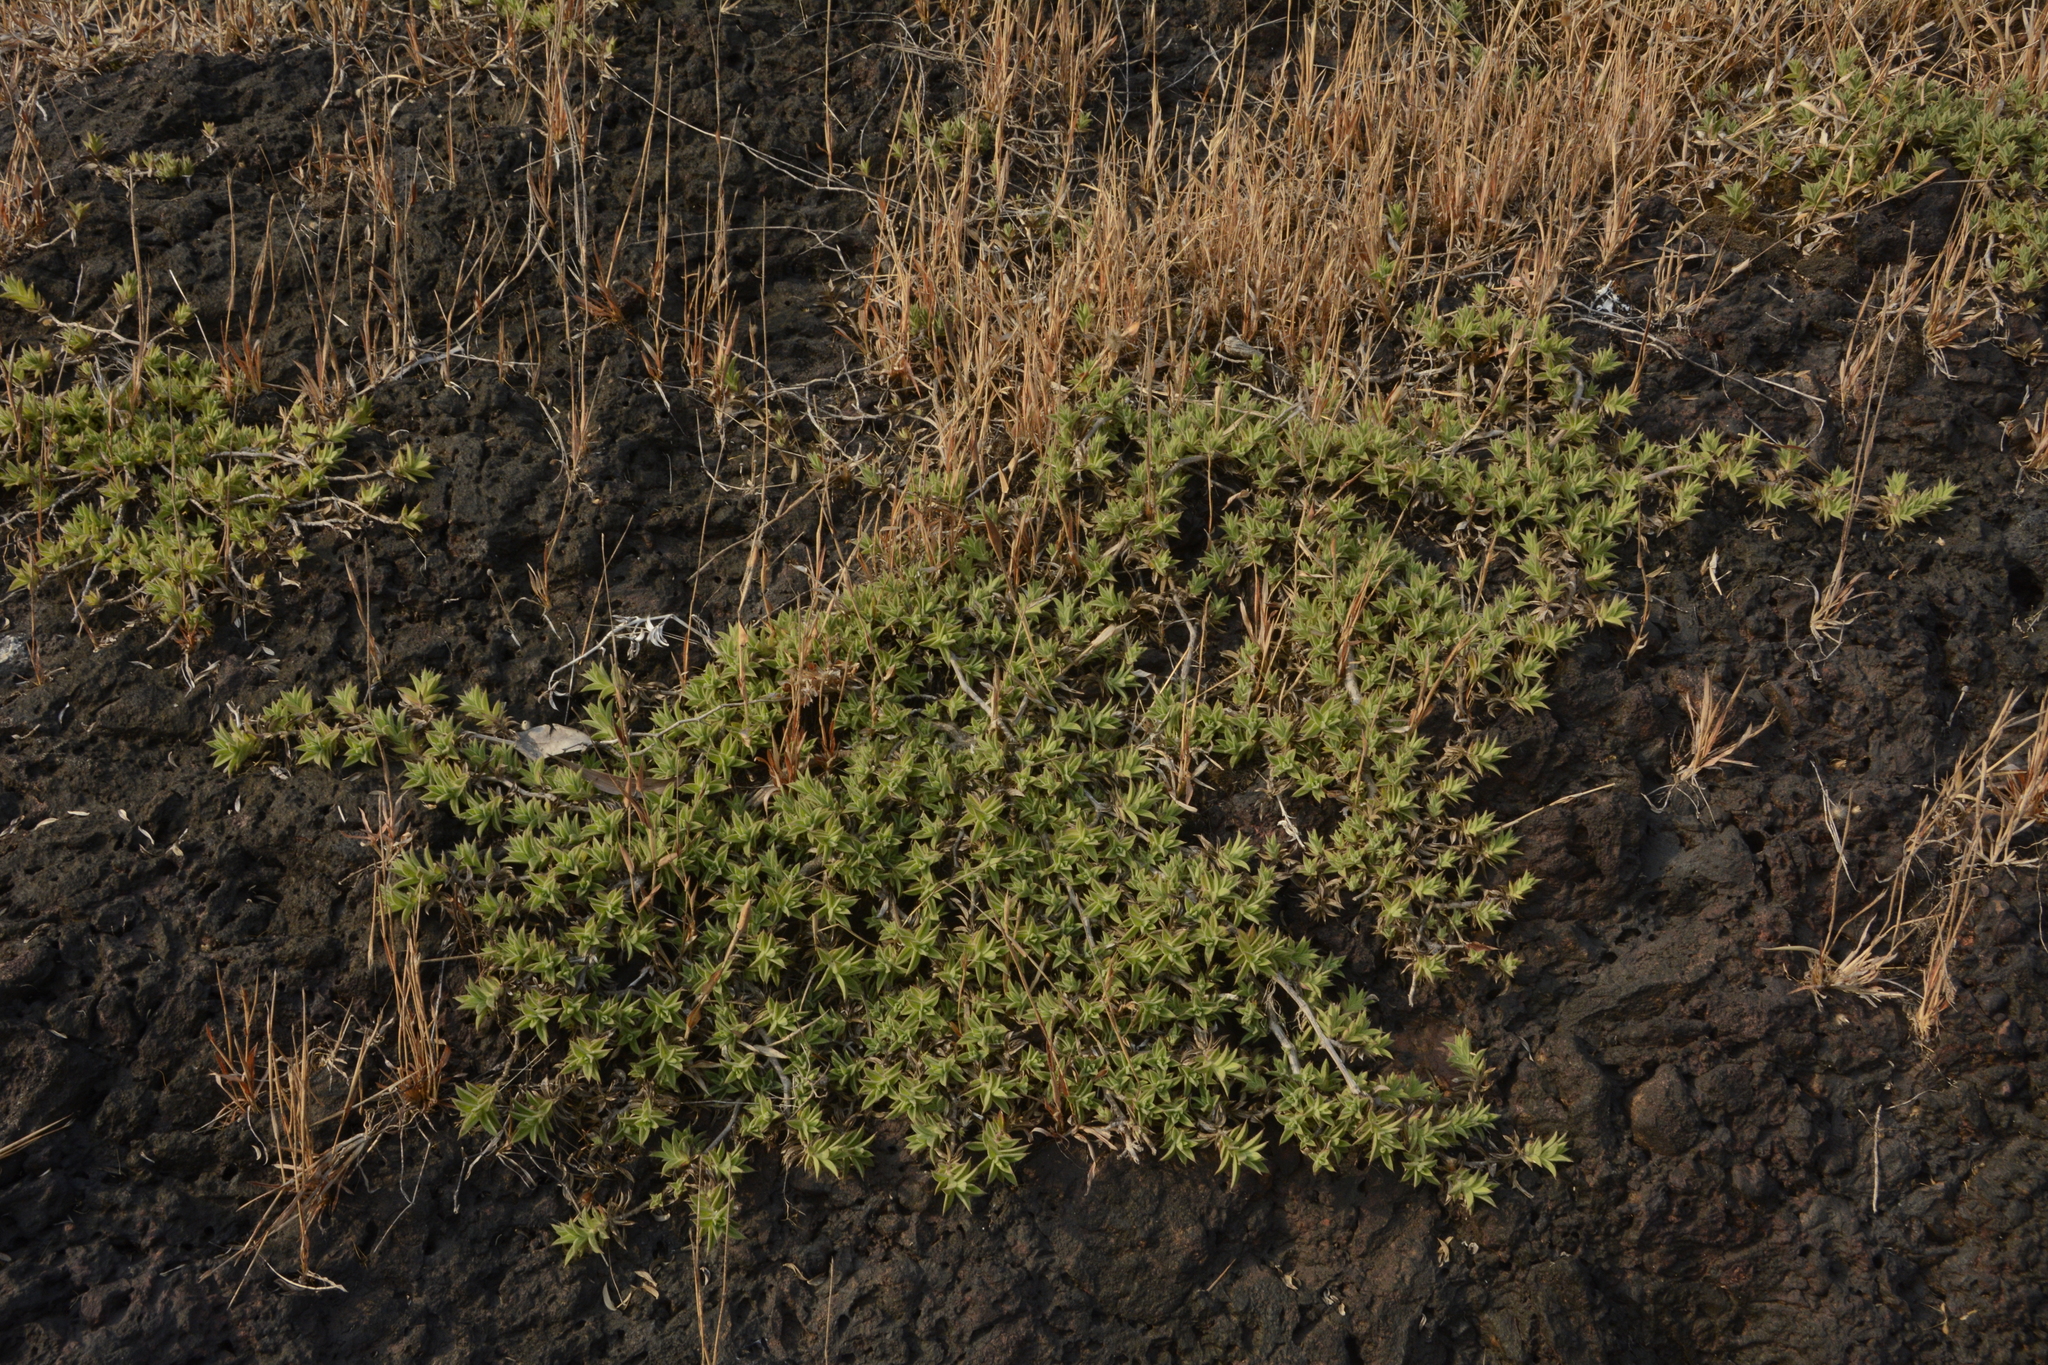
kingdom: Plantae
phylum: Tracheophyta
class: Magnoliopsida
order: Lamiales
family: Acanthaceae
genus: Lepidagathis
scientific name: Lepidagathis keralensis
